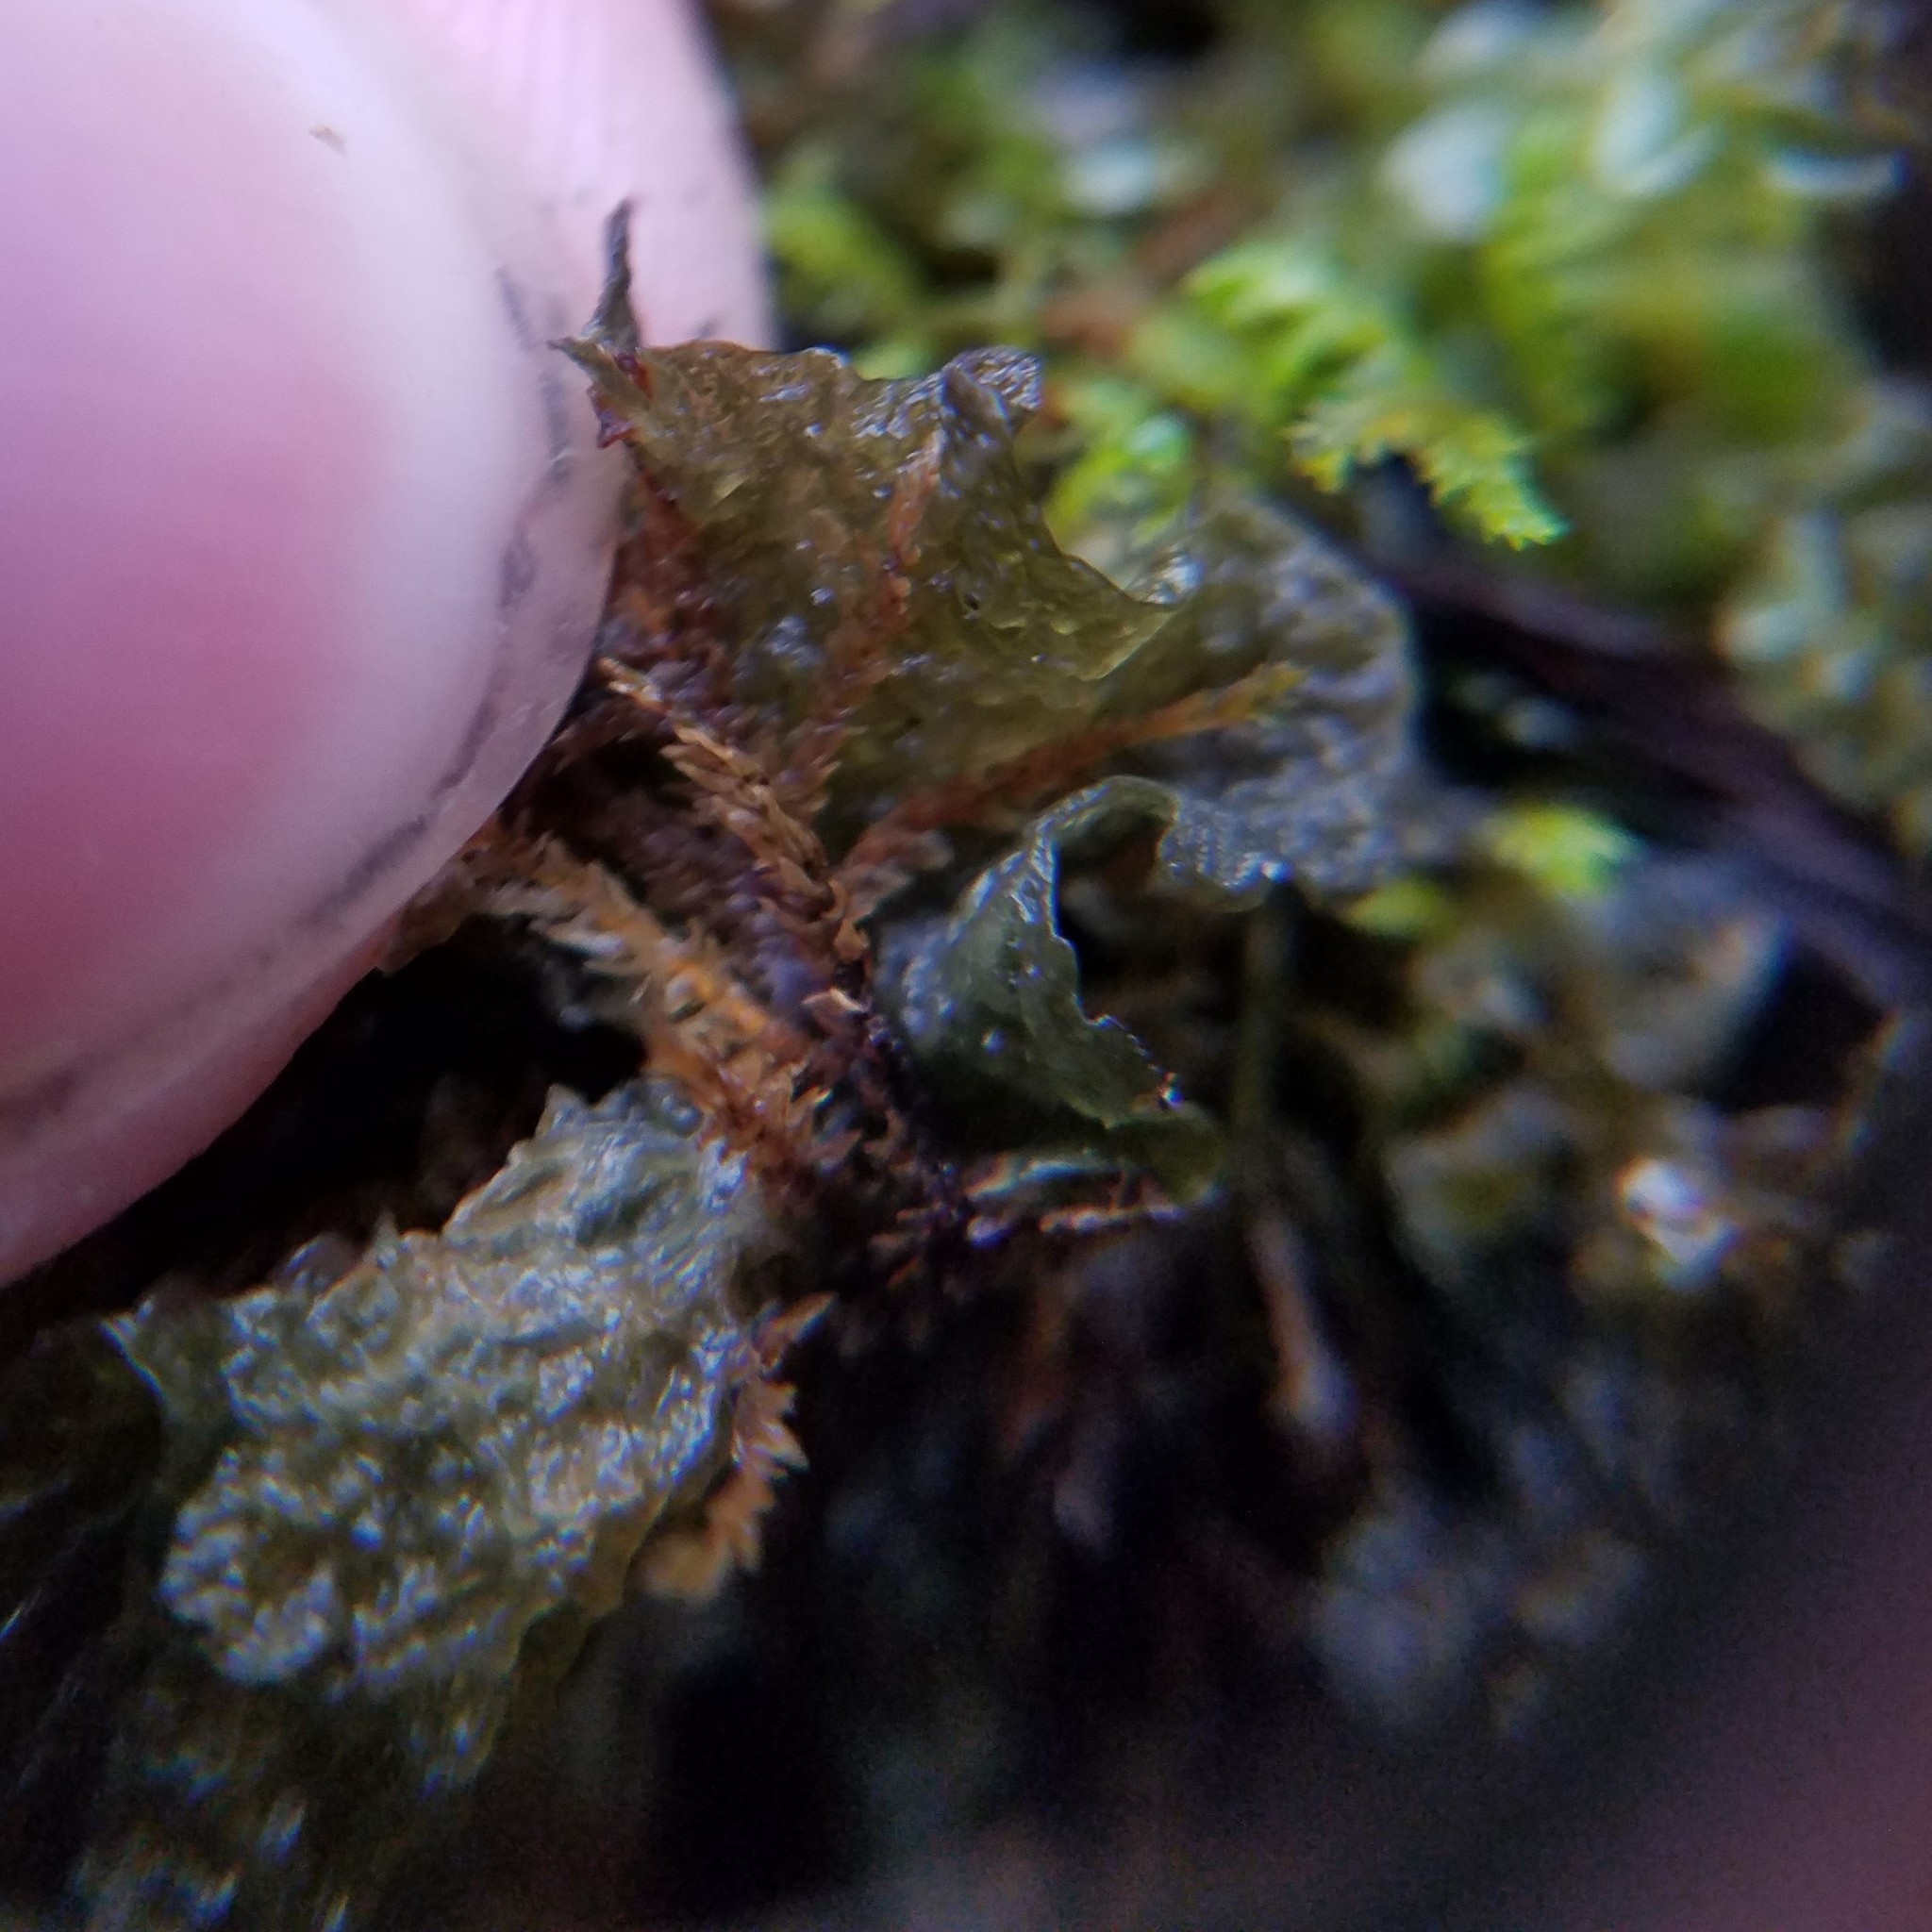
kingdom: Fungi
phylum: Ascomycota
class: Lecanoromycetes
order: Peltigerales
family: Collemataceae
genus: Leptogium
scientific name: Leptogium corticola
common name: Blistered jellyskin lichen
